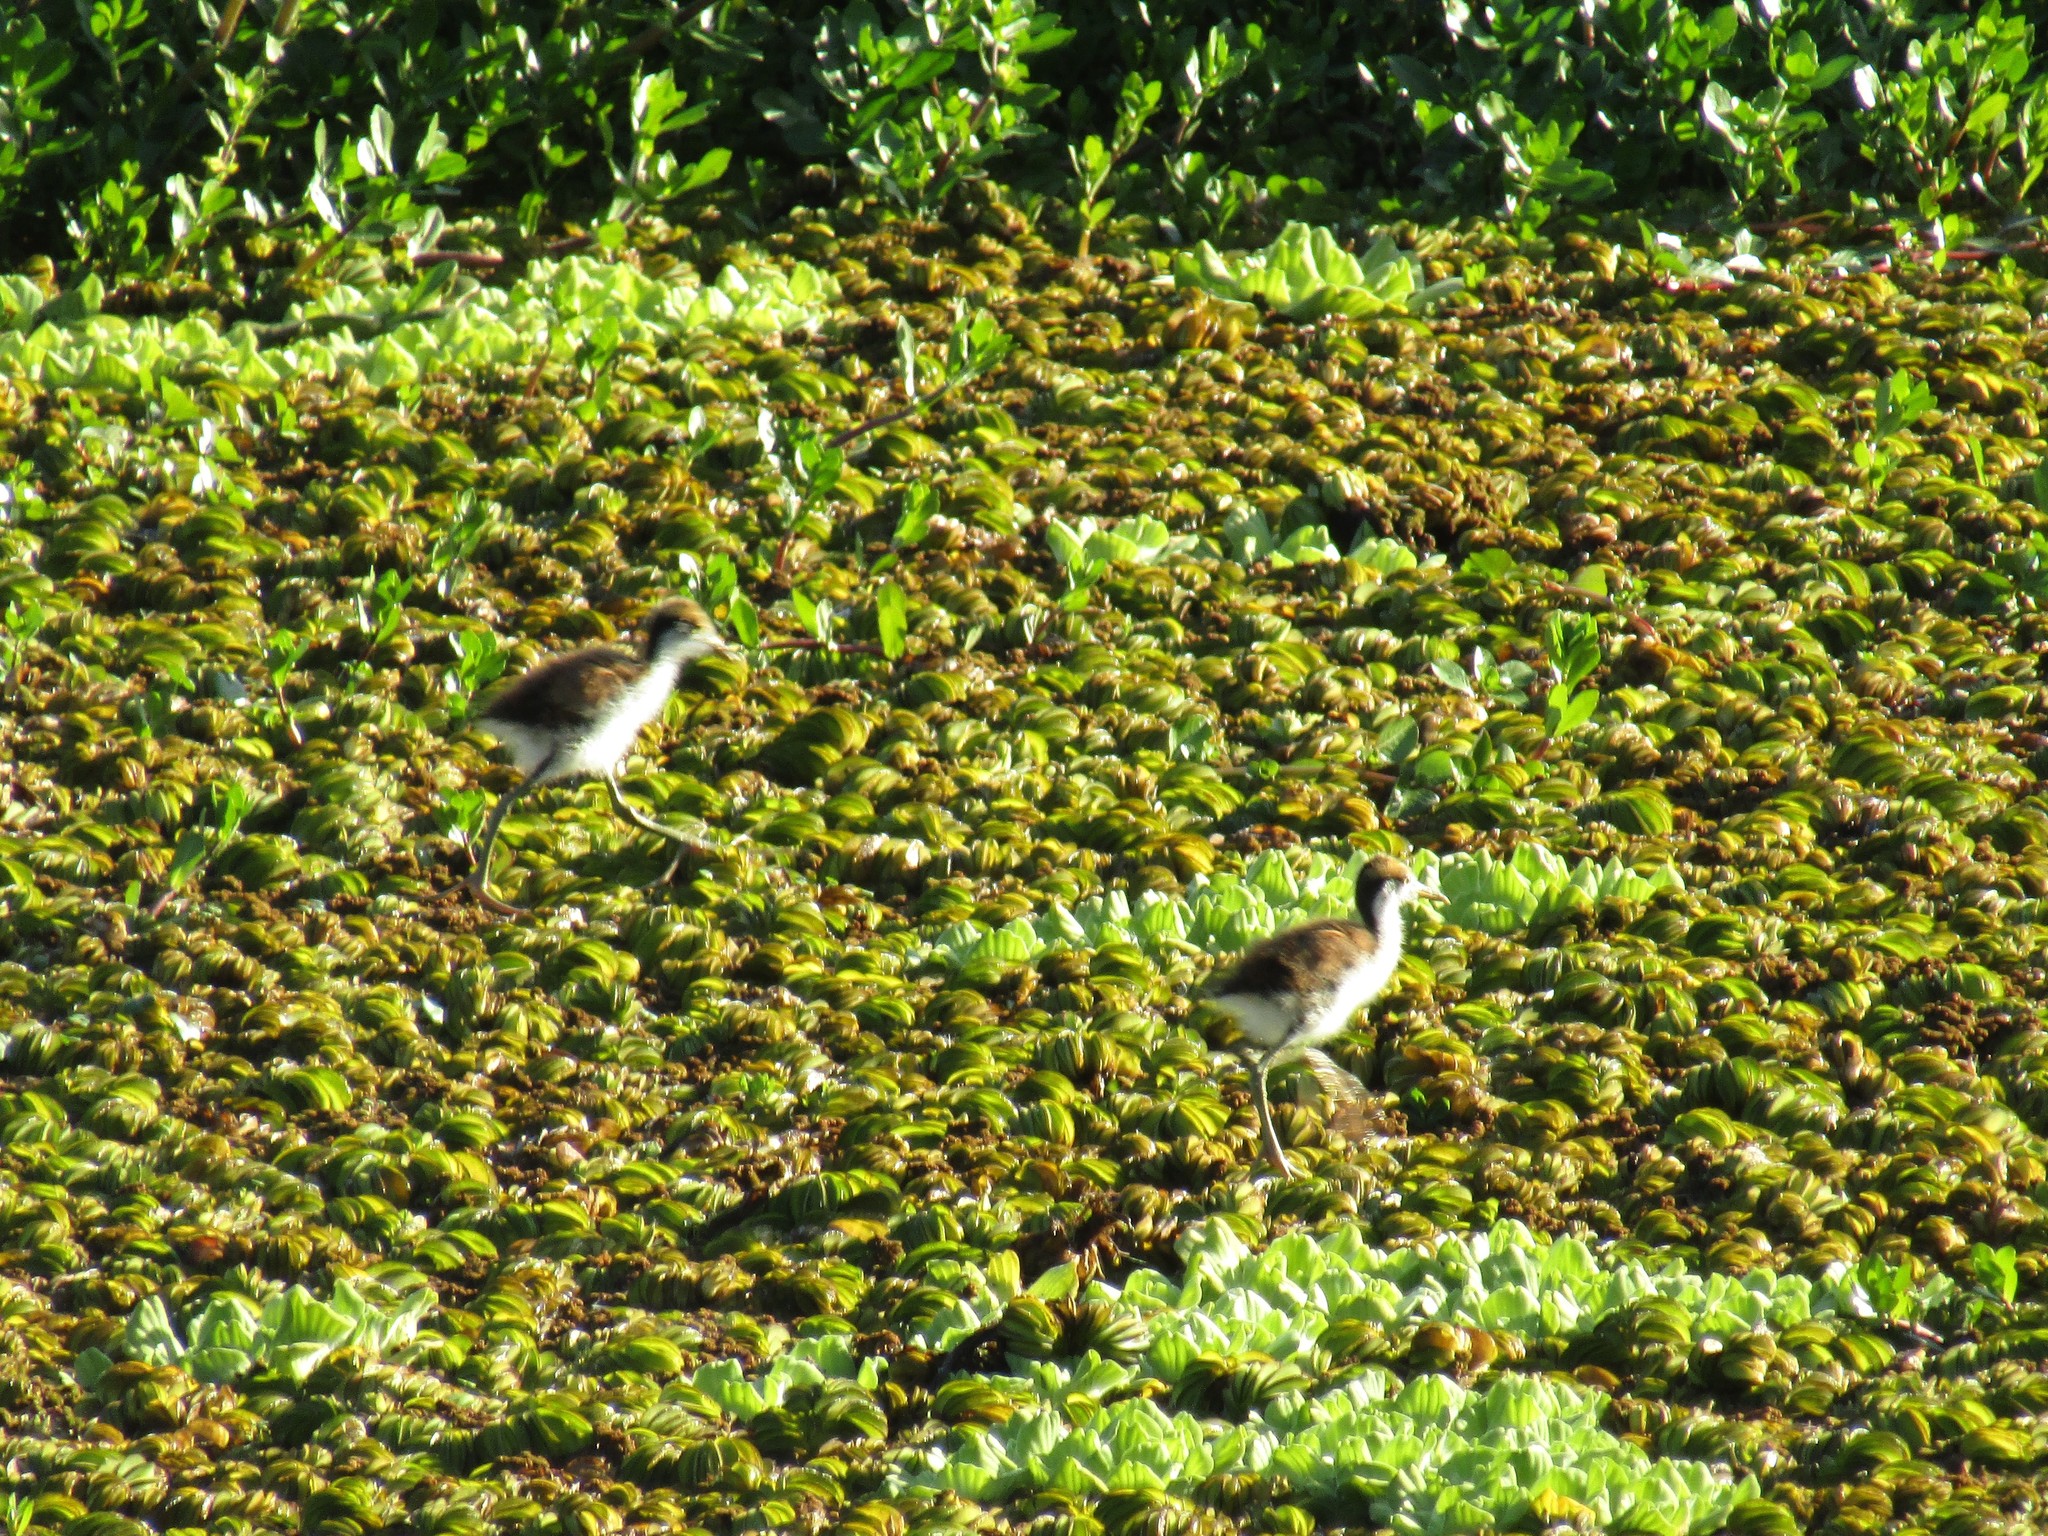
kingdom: Animalia
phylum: Chordata
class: Aves
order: Charadriiformes
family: Jacanidae
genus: Jacana
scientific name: Jacana jacana
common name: Wattled jacana
